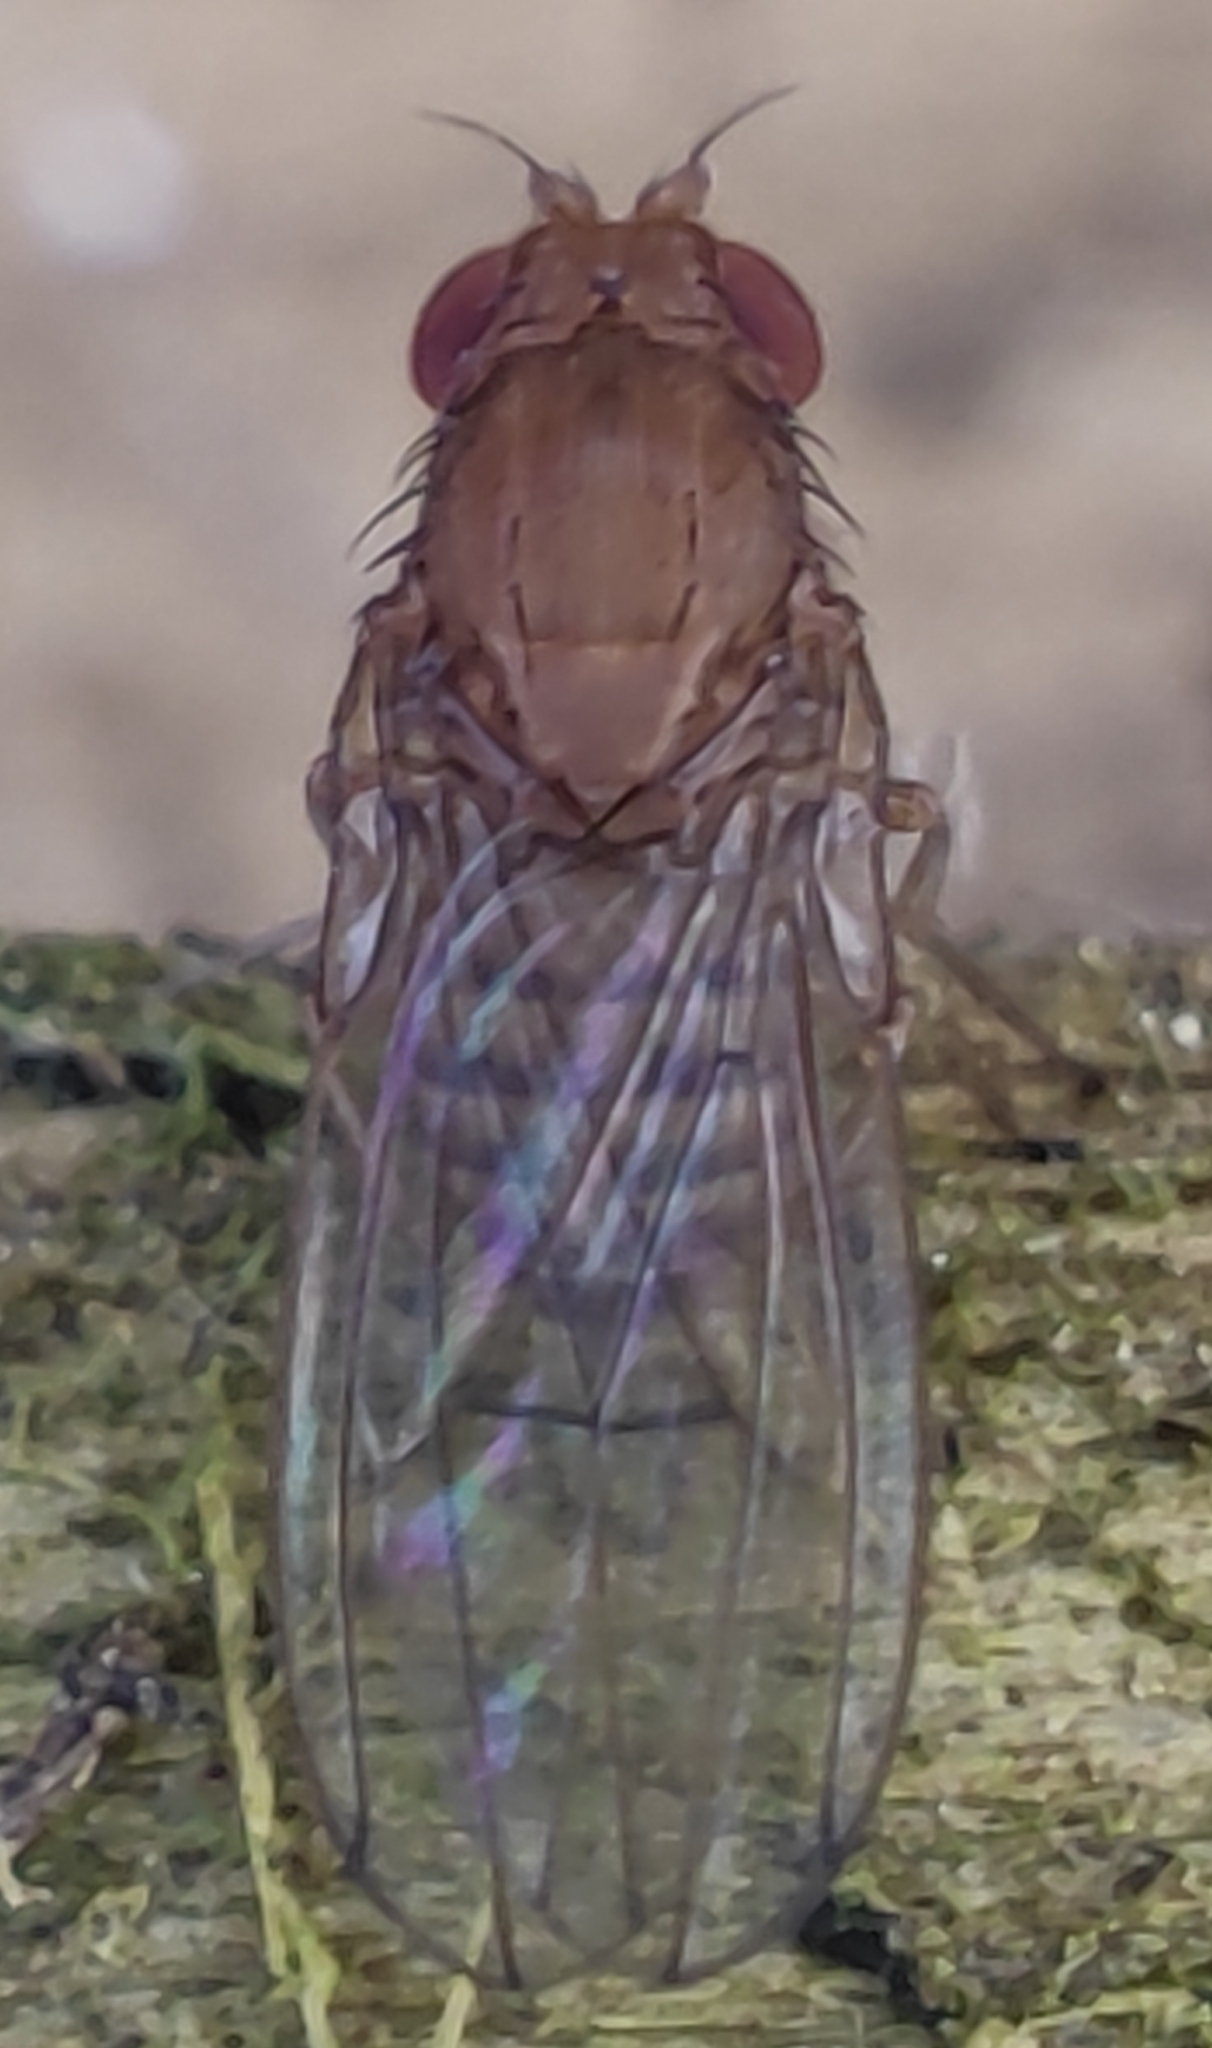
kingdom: Animalia
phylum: Arthropoda
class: Insecta
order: Diptera
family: Drosophilidae
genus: Drosophila
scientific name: Drosophila immigrans
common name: Pomace fly
